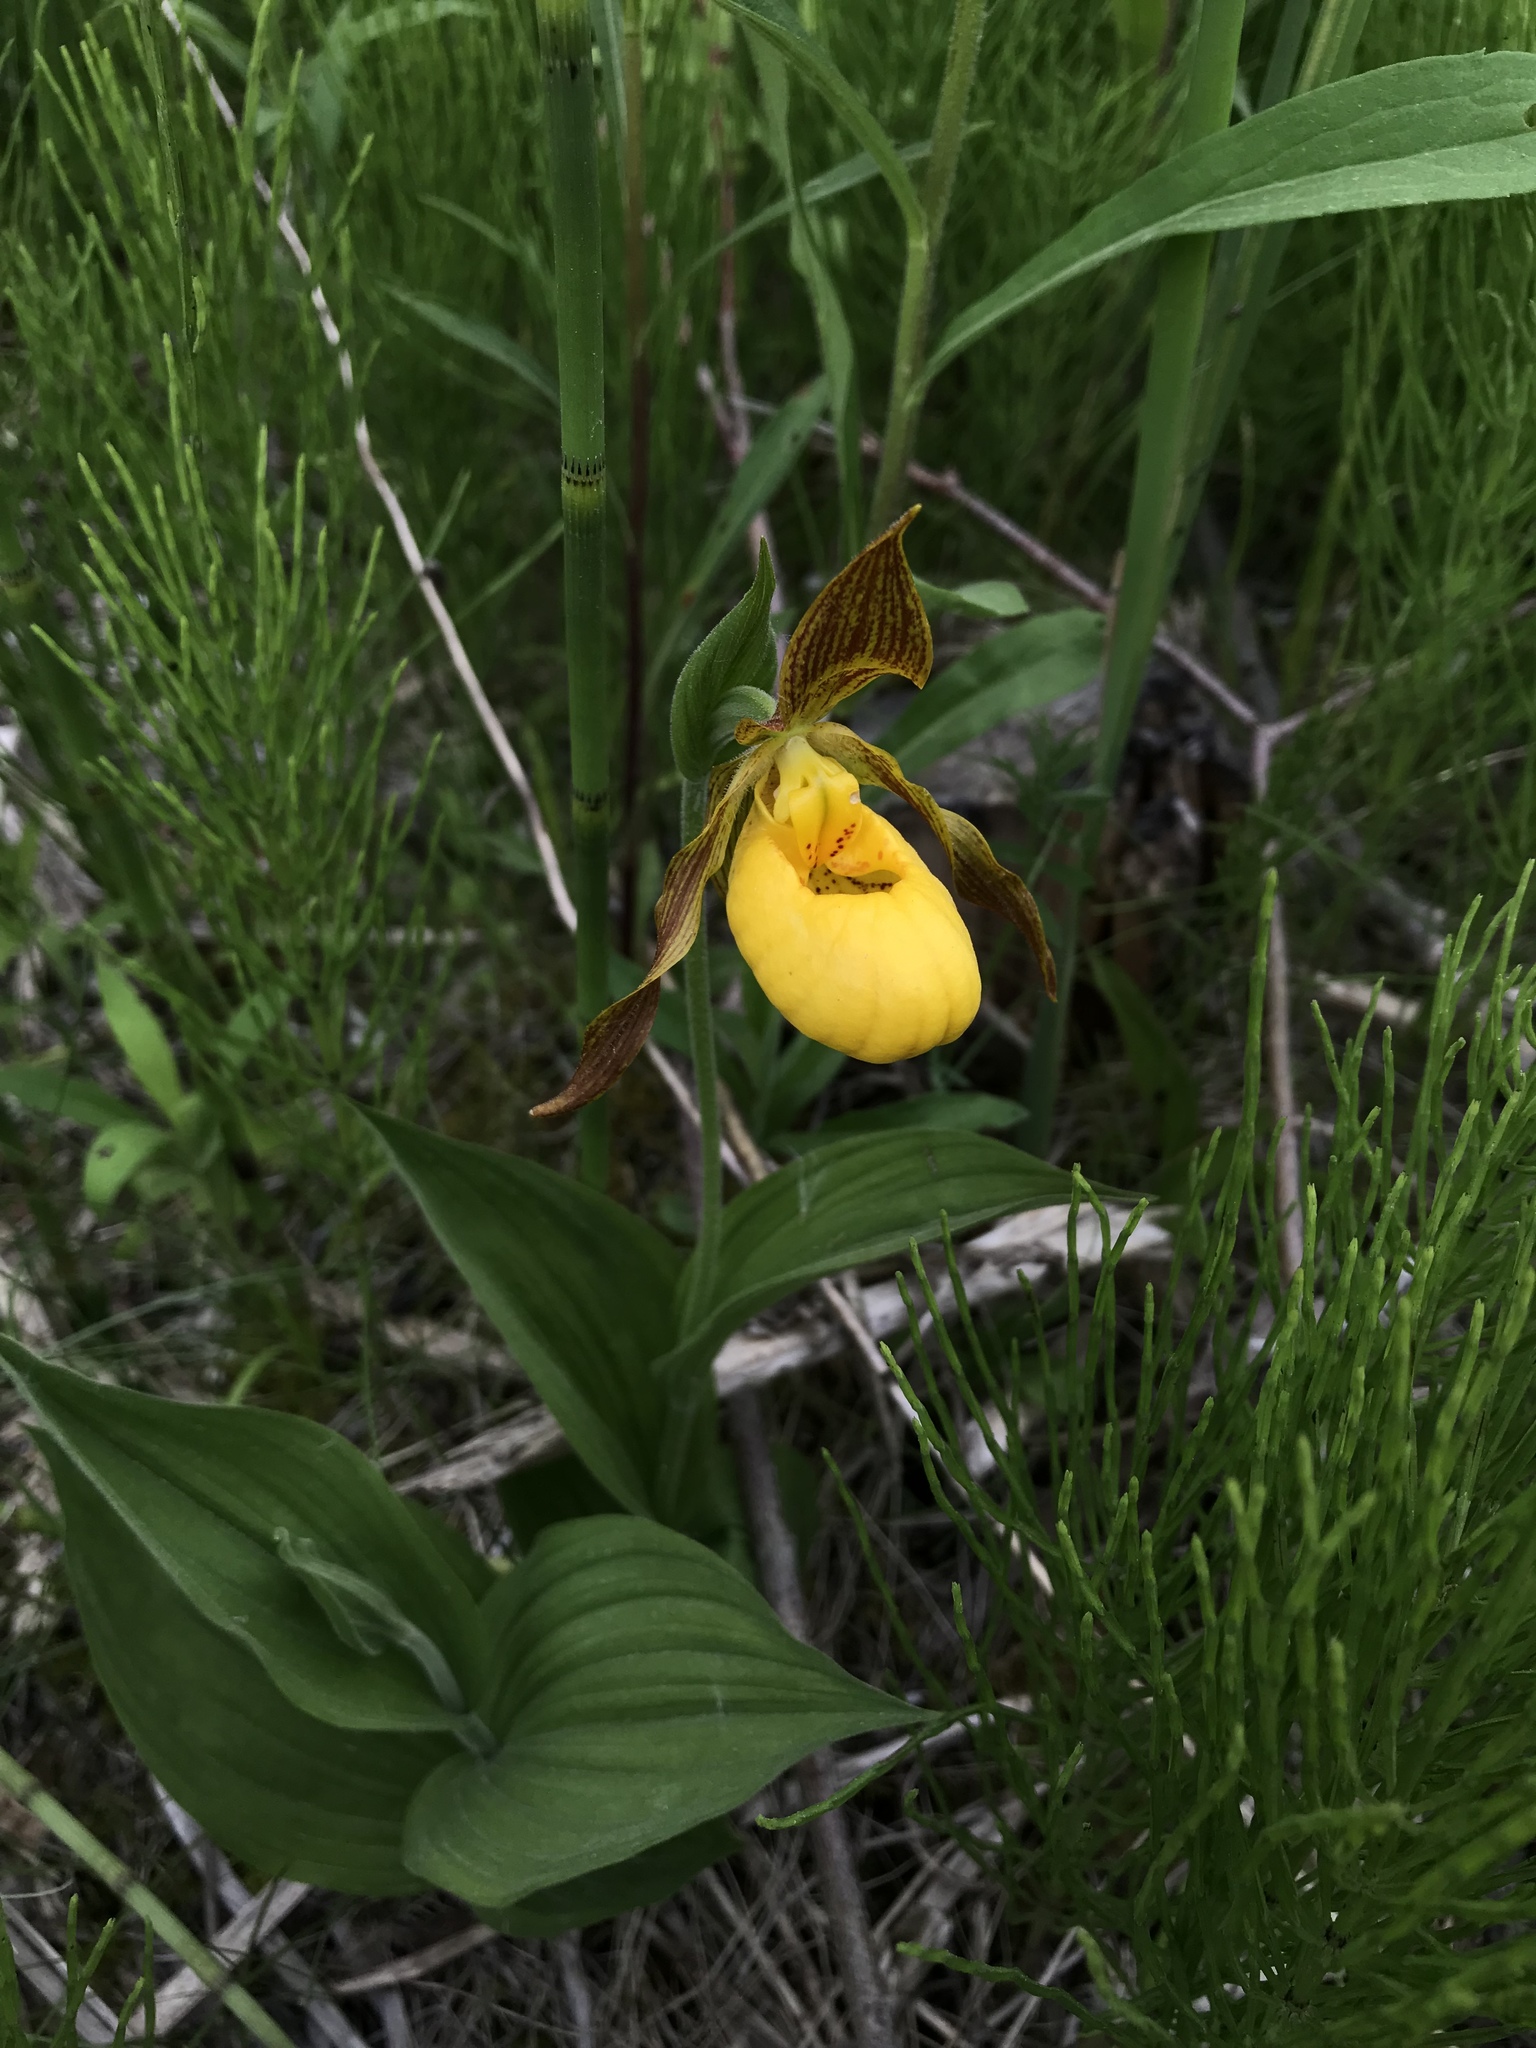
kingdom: Plantae
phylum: Tracheophyta
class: Liliopsida
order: Asparagales
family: Orchidaceae
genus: Cypripedium
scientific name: Cypripedium parviflorum
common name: American yellow lady's-slipper
